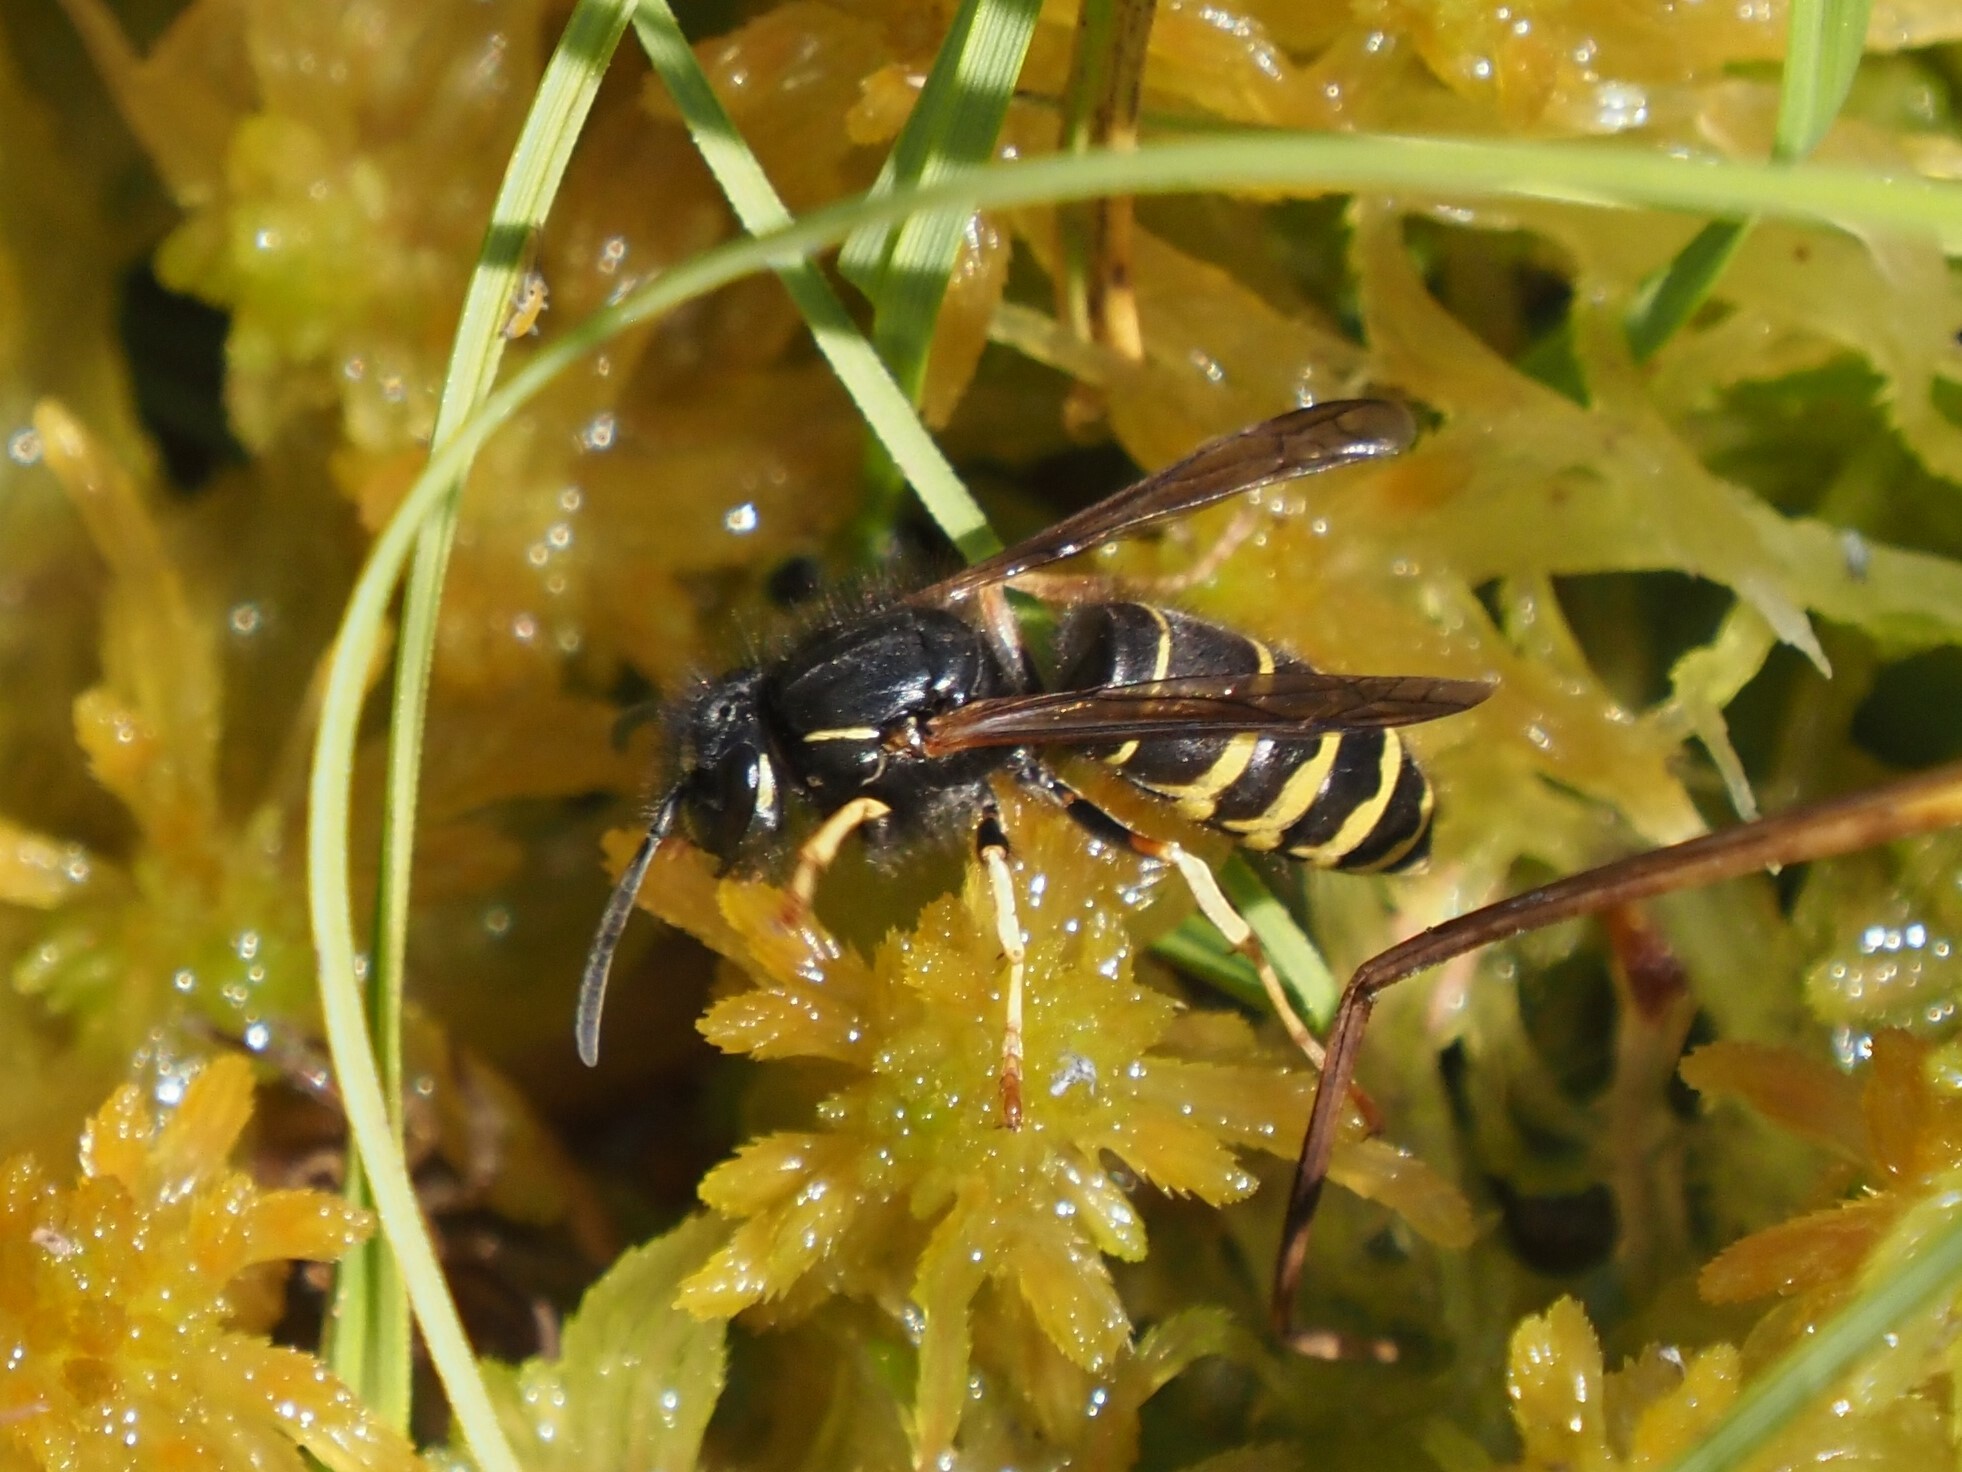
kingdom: Animalia
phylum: Arthropoda
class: Insecta
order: Hymenoptera
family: Vespidae
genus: Vespula
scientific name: Vespula acadica
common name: Forest yellowjacket
